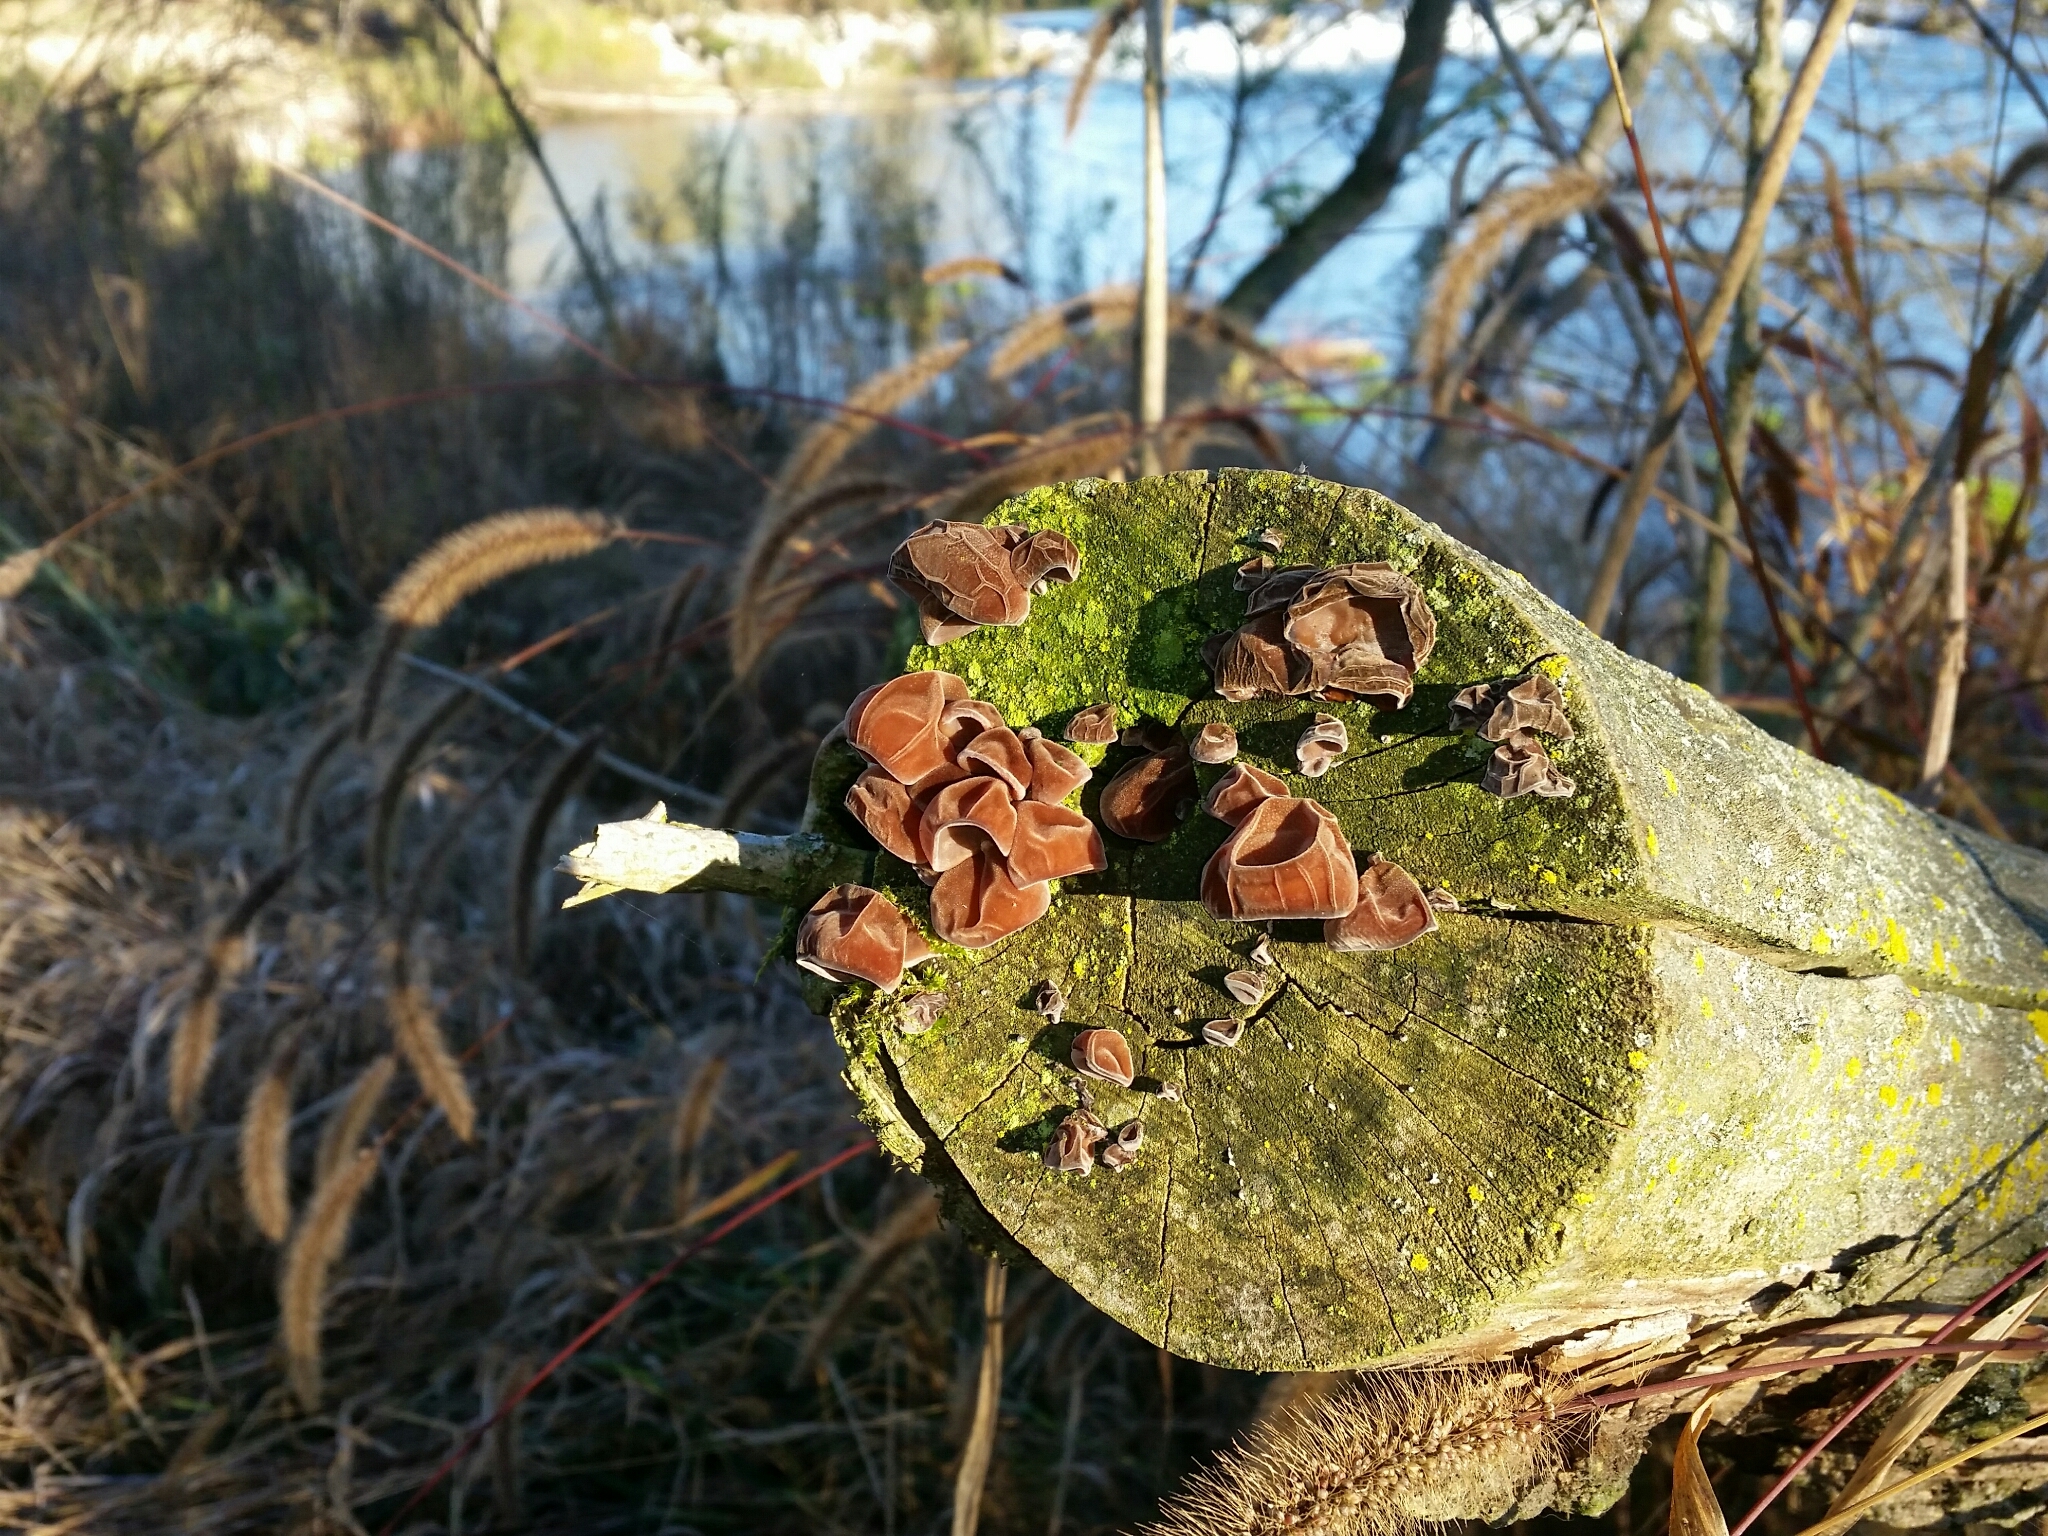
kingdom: Fungi
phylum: Basidiomycota
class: Agaricomycetes
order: Auriculariales
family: Auriculariaceae
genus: Auricularia
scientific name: Auricularia auricula-judae
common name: Jelly ear
